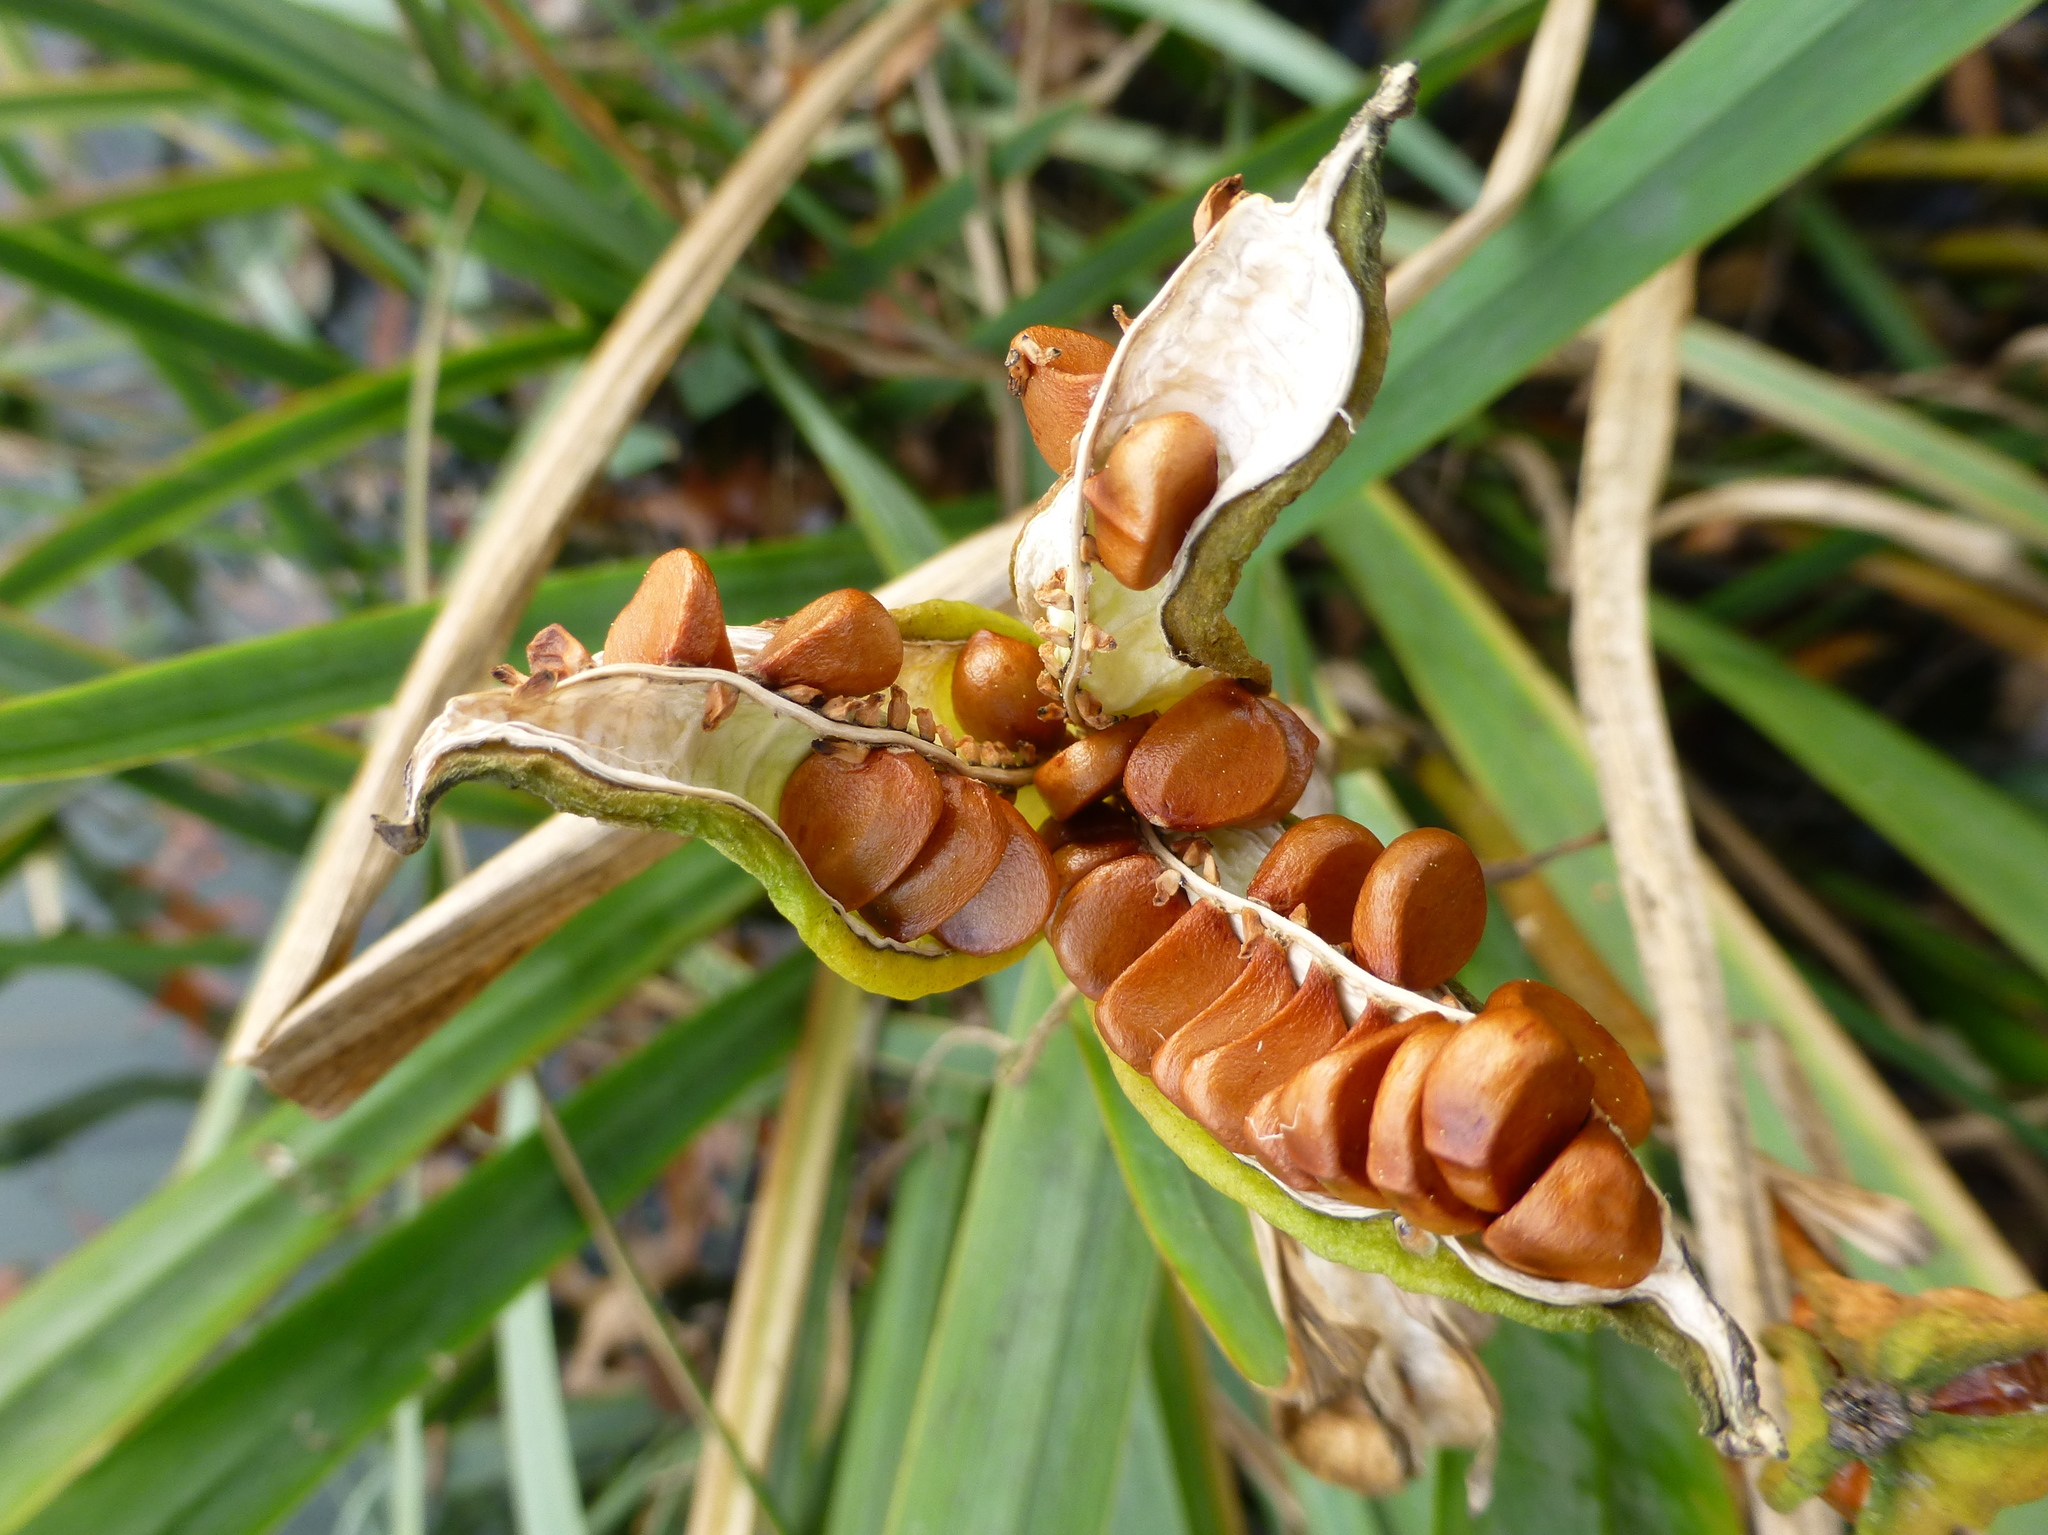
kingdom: Plantae
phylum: Tracheophyta
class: Liliopsida
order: Asparagales
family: Iridaceae
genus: Iris
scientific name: Iris pseudacorus
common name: Yellow flag
